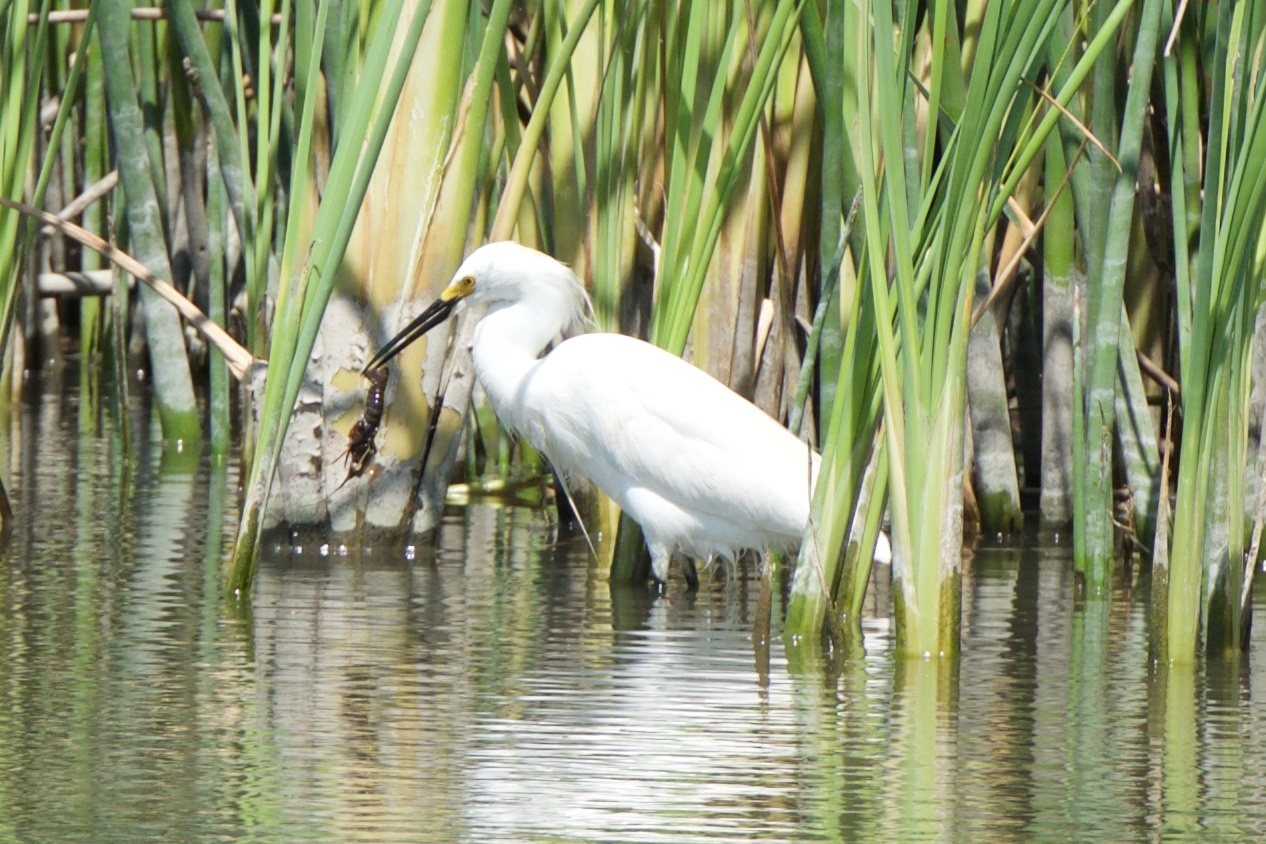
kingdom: Animalia
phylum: Chordata
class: Aves
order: Pelecaniformes
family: Ardeidae
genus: Egretta
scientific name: Egretta thula
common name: Snowy egret
